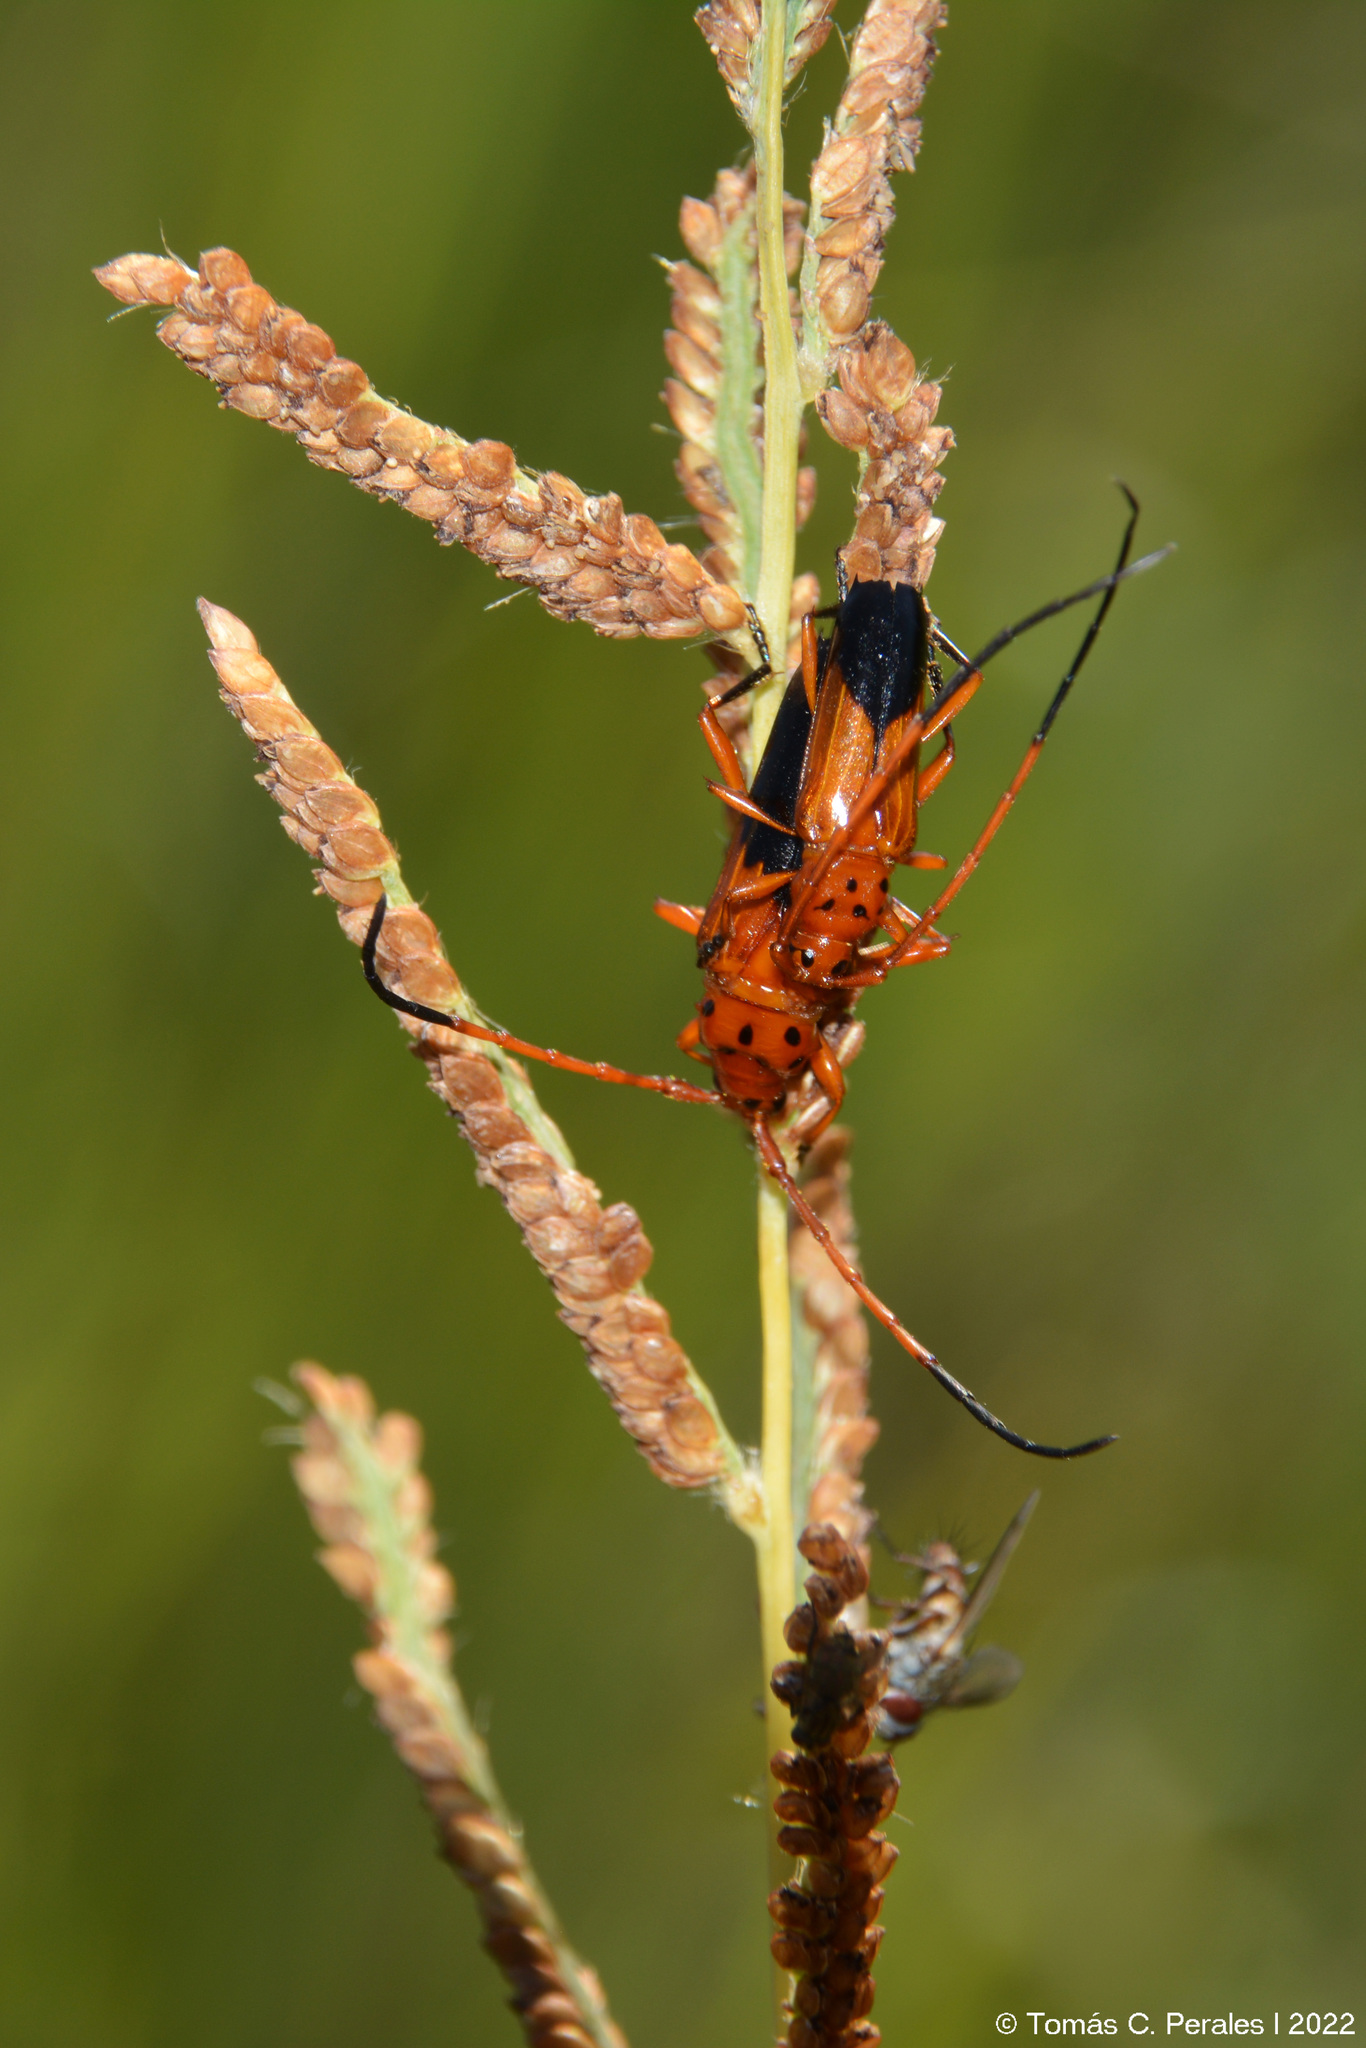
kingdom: Animalia
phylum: Arthropoda
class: Insecta
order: Coleoptera
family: Cerambycidae
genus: Oxymerus
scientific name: Oxymerus chevrolatii
